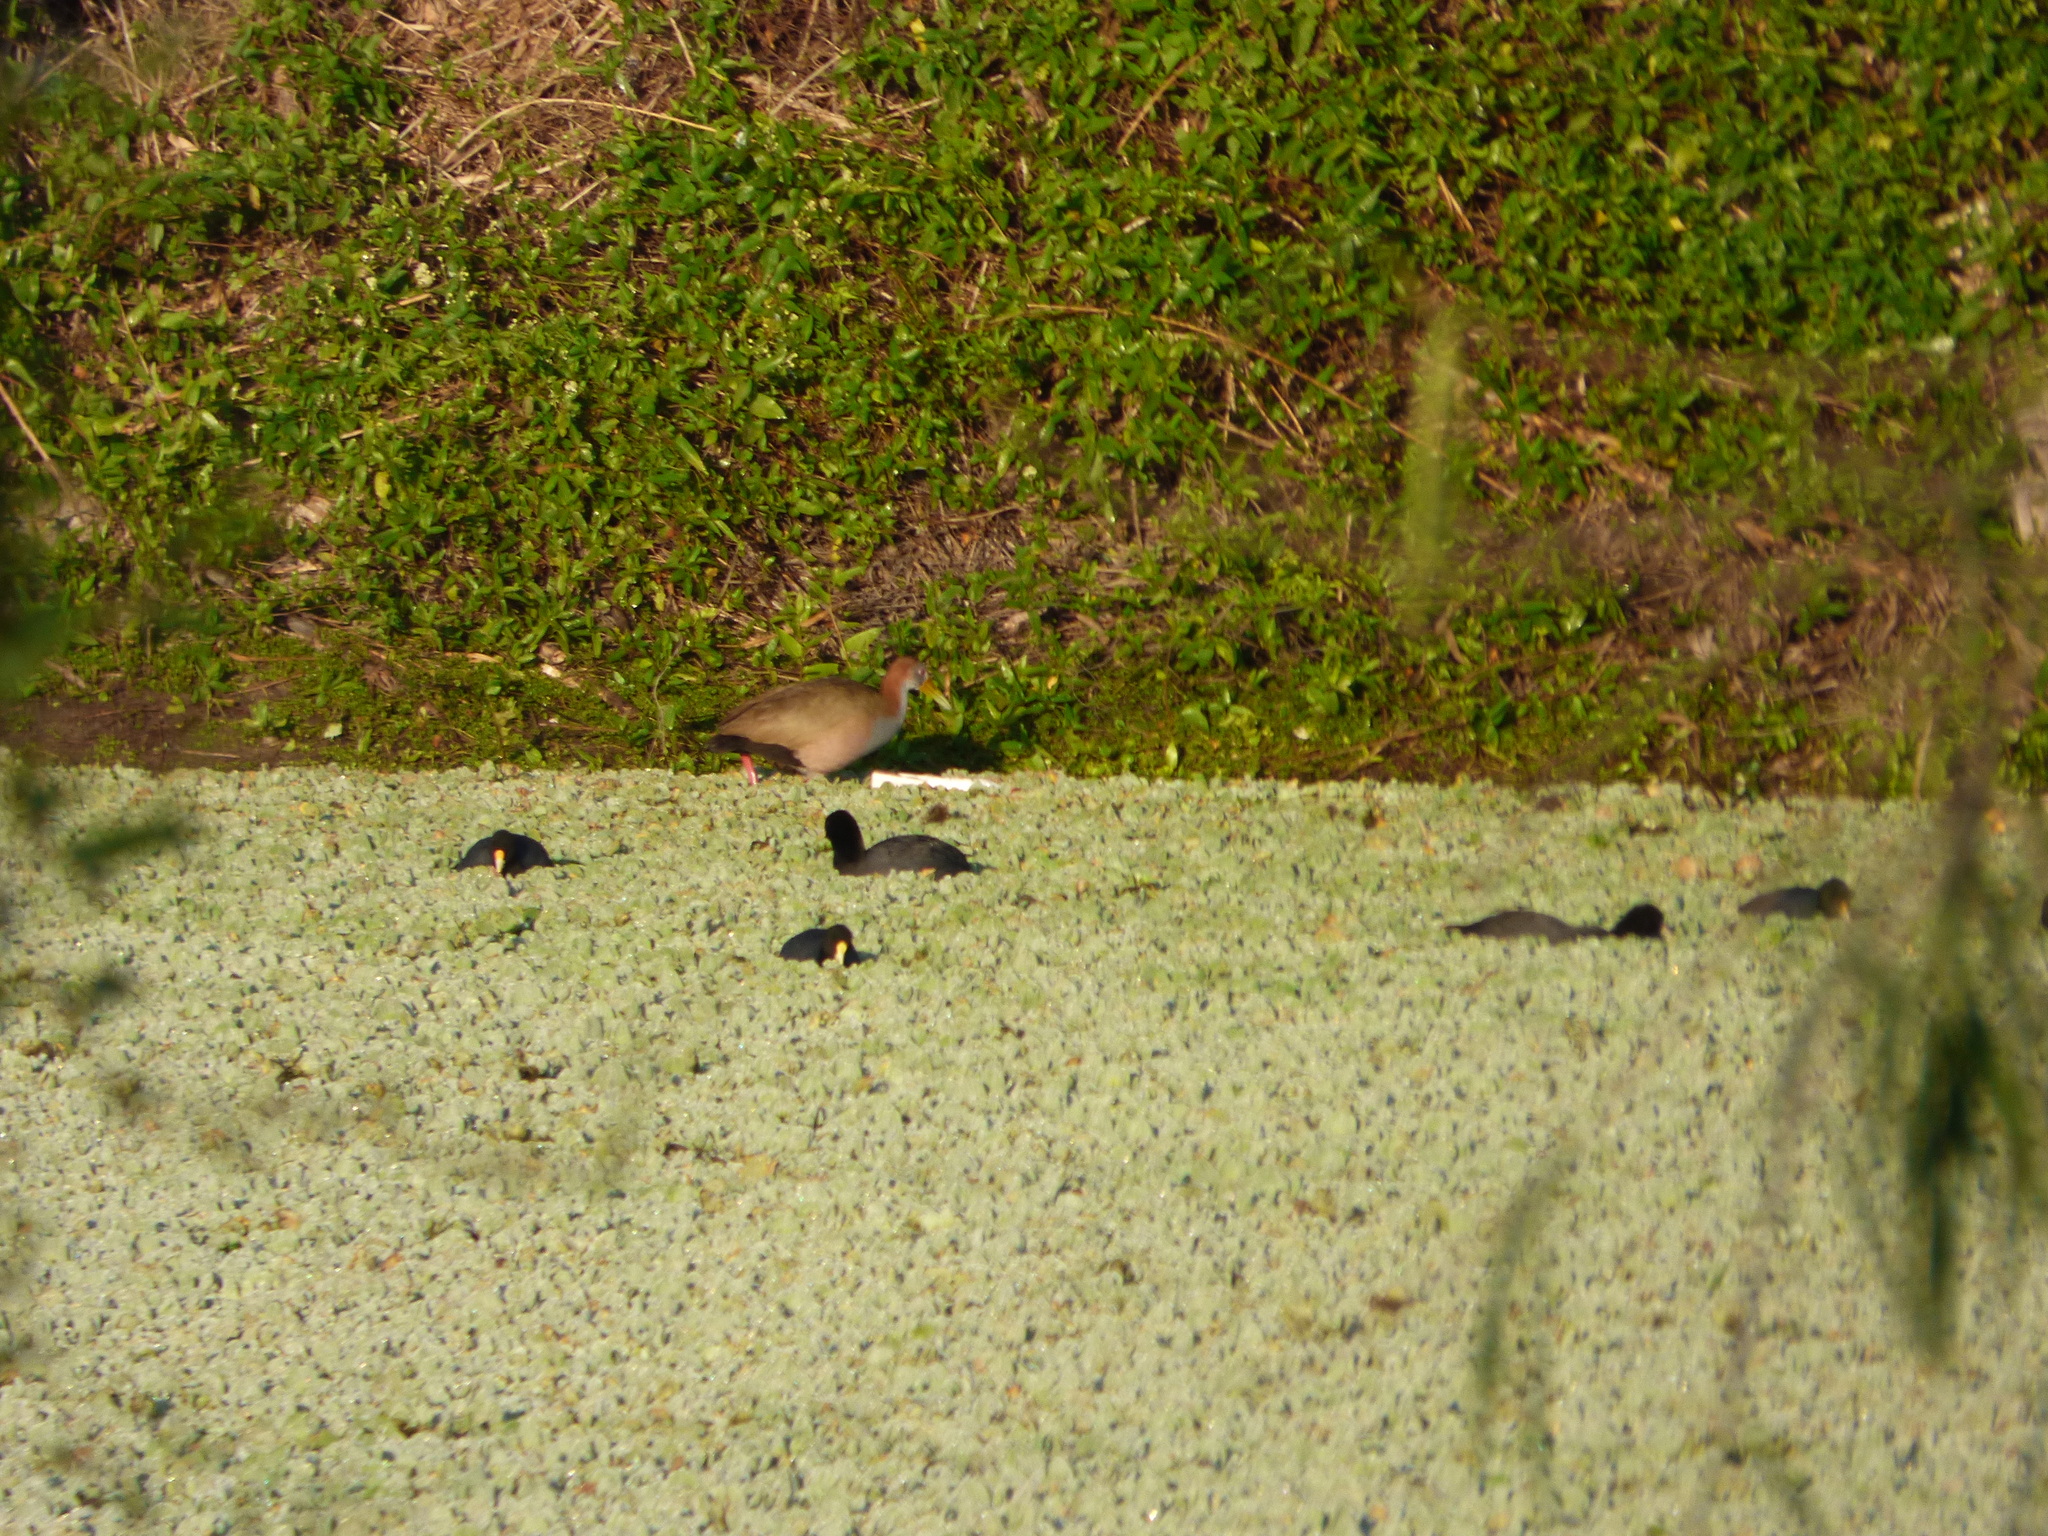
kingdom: Animalia
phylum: Chordata
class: Aves
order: Gruiformes
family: Rallidae
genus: Aramides
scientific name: Aramides ypecaha
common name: Giant wood rail
